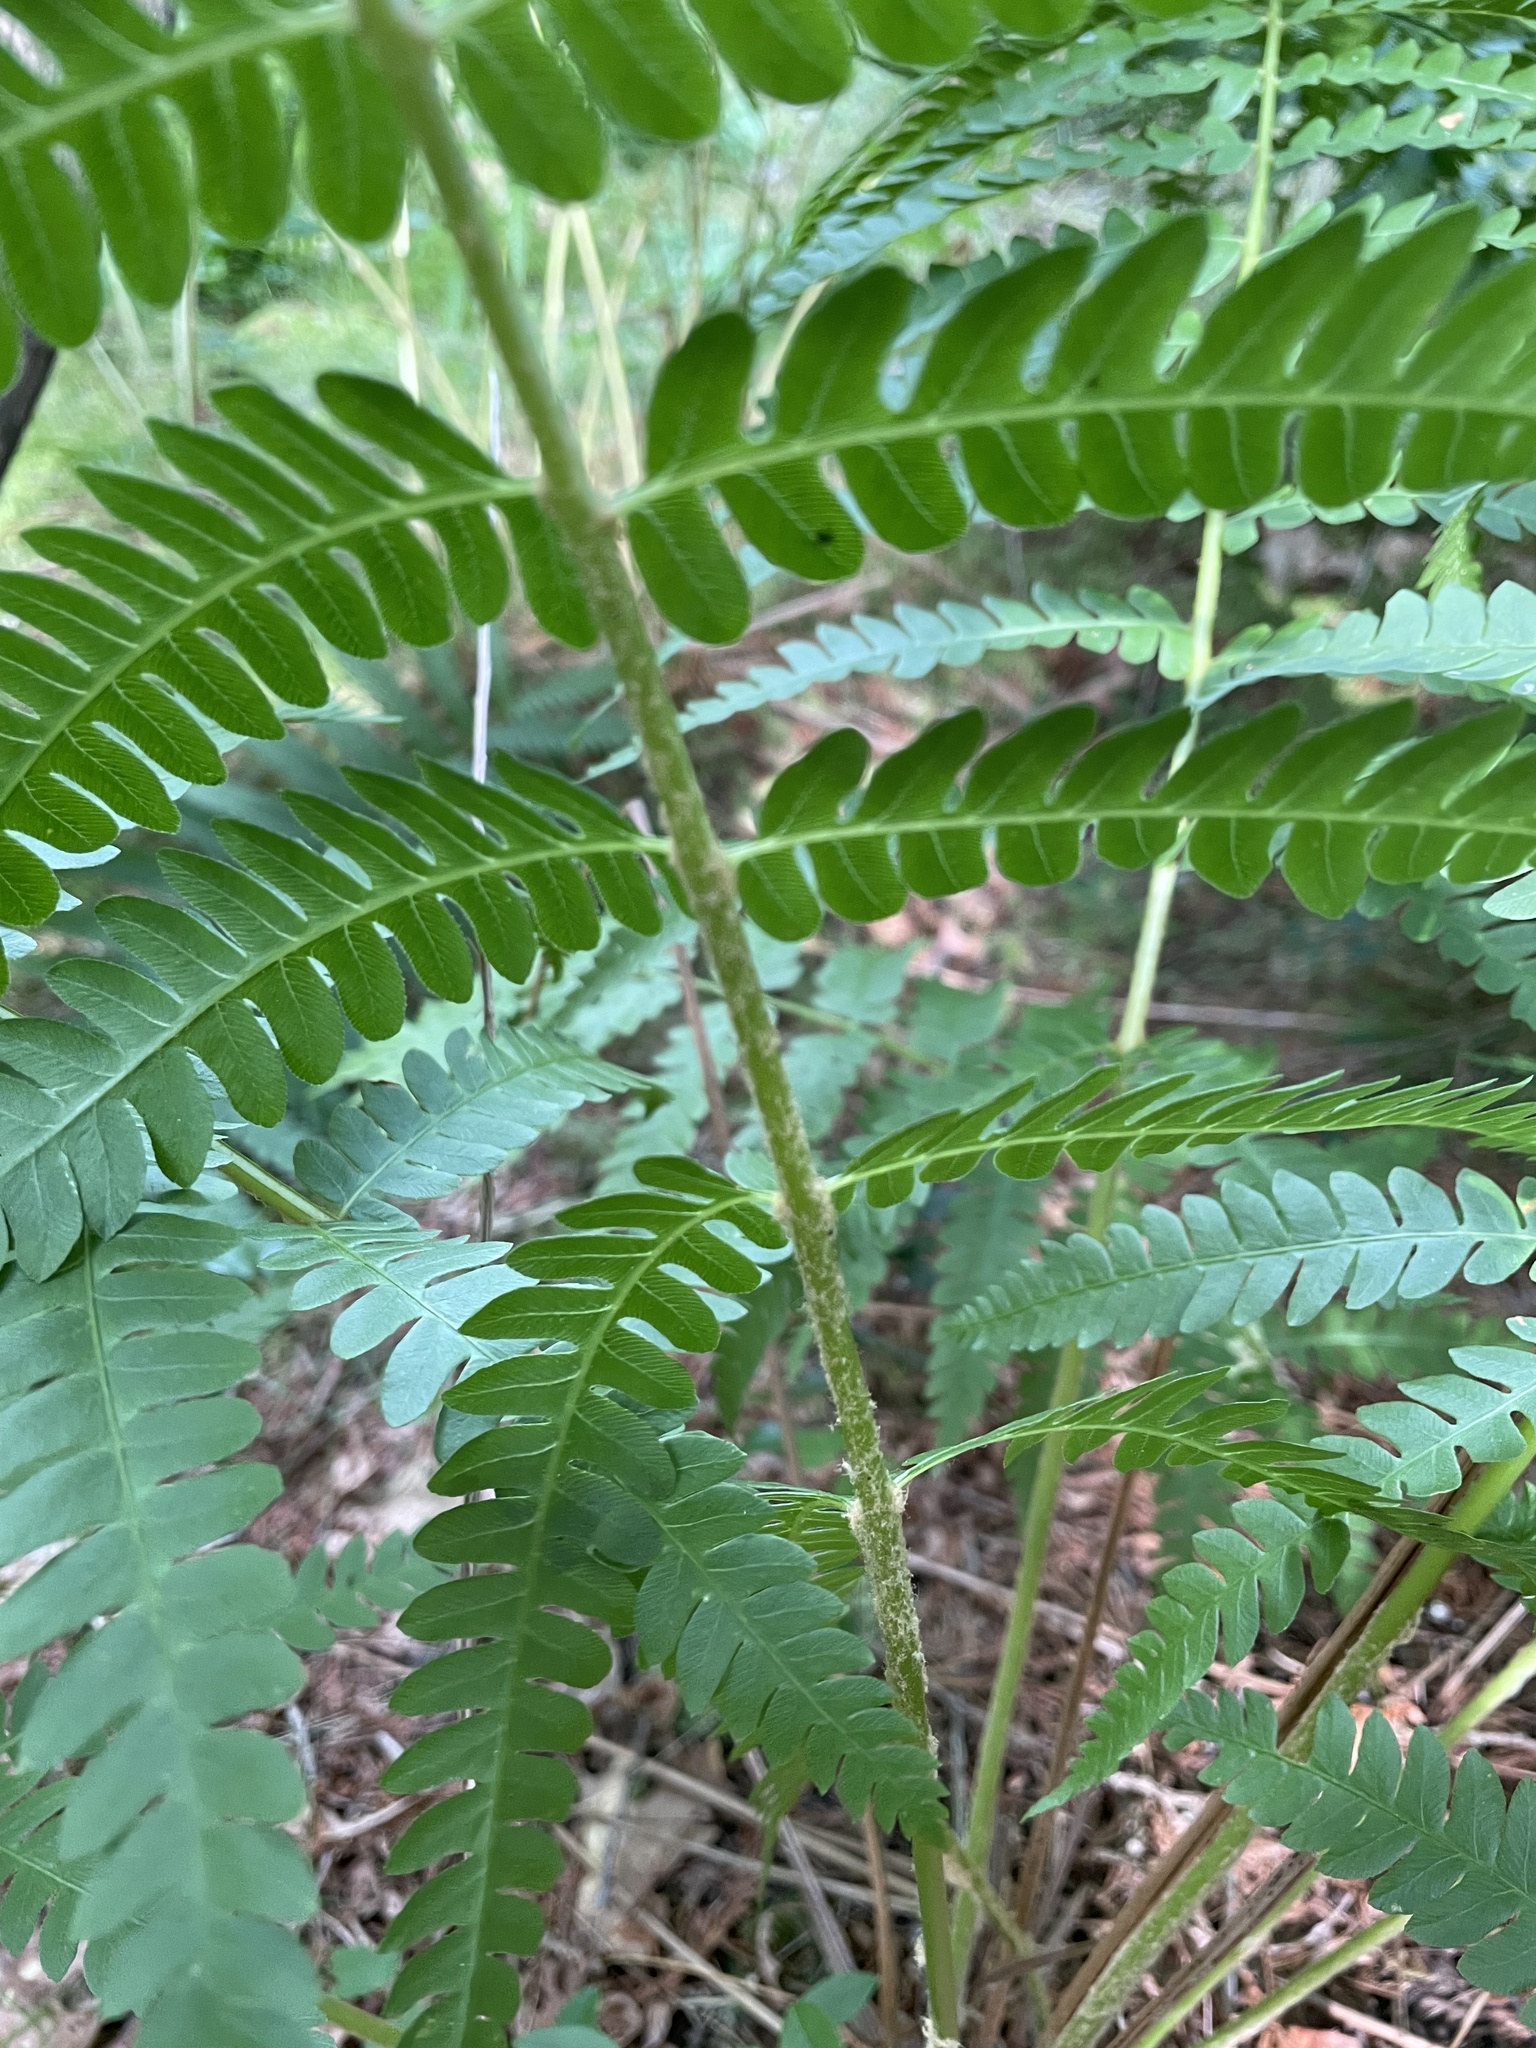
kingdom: Plantae
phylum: Tracheophyta
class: Polypodiopsida
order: Osmundales
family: Osmundaceae
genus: Osmundastrum
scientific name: Osmundastrum cinnamomeum
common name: Cinnamon fern
